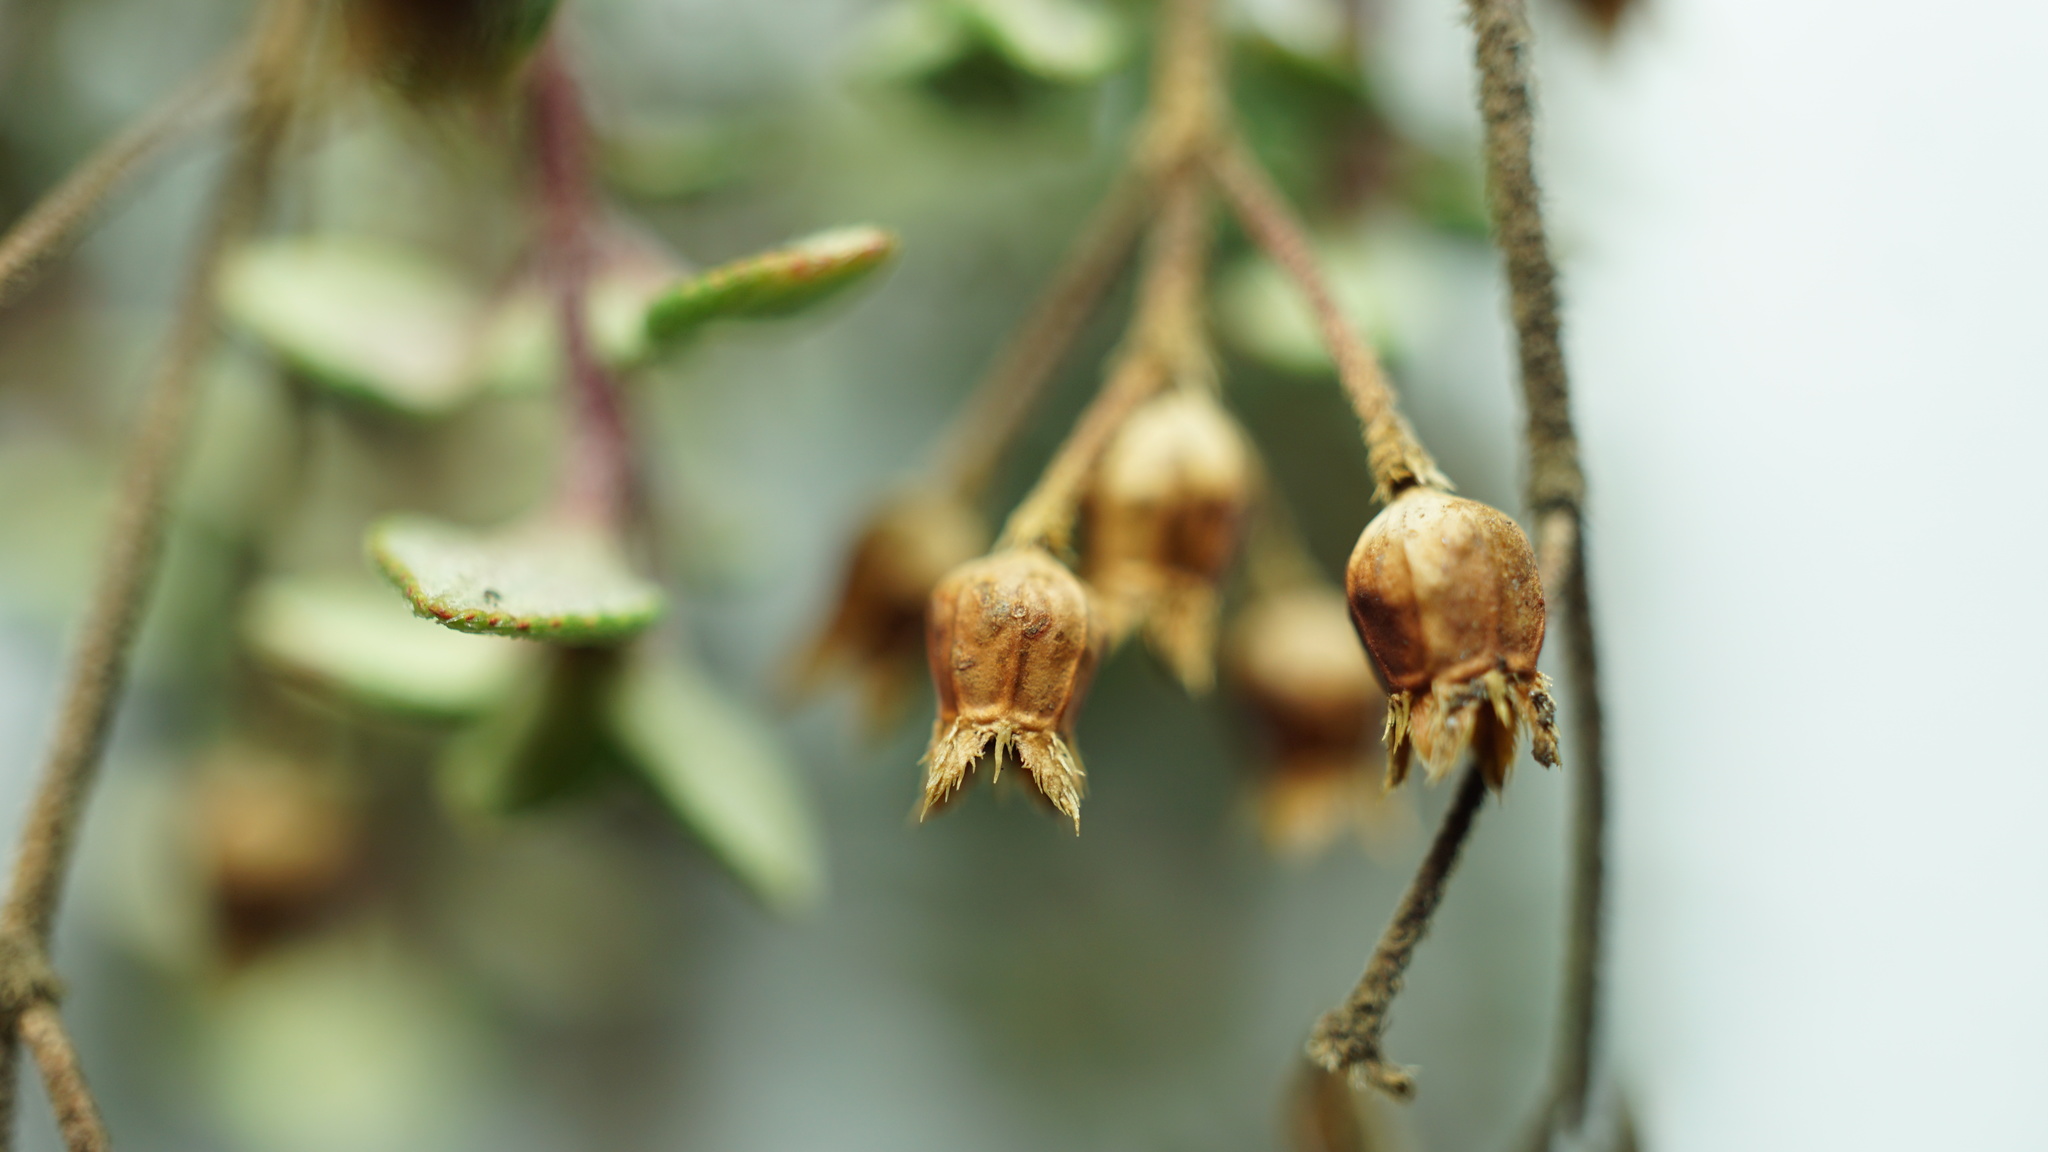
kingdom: Plantae
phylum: Tracheophyta
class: Magnoliopsida
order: Myrtales
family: Melastomataceae
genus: Chaetolepis
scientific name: Chaetolepis microphylla
